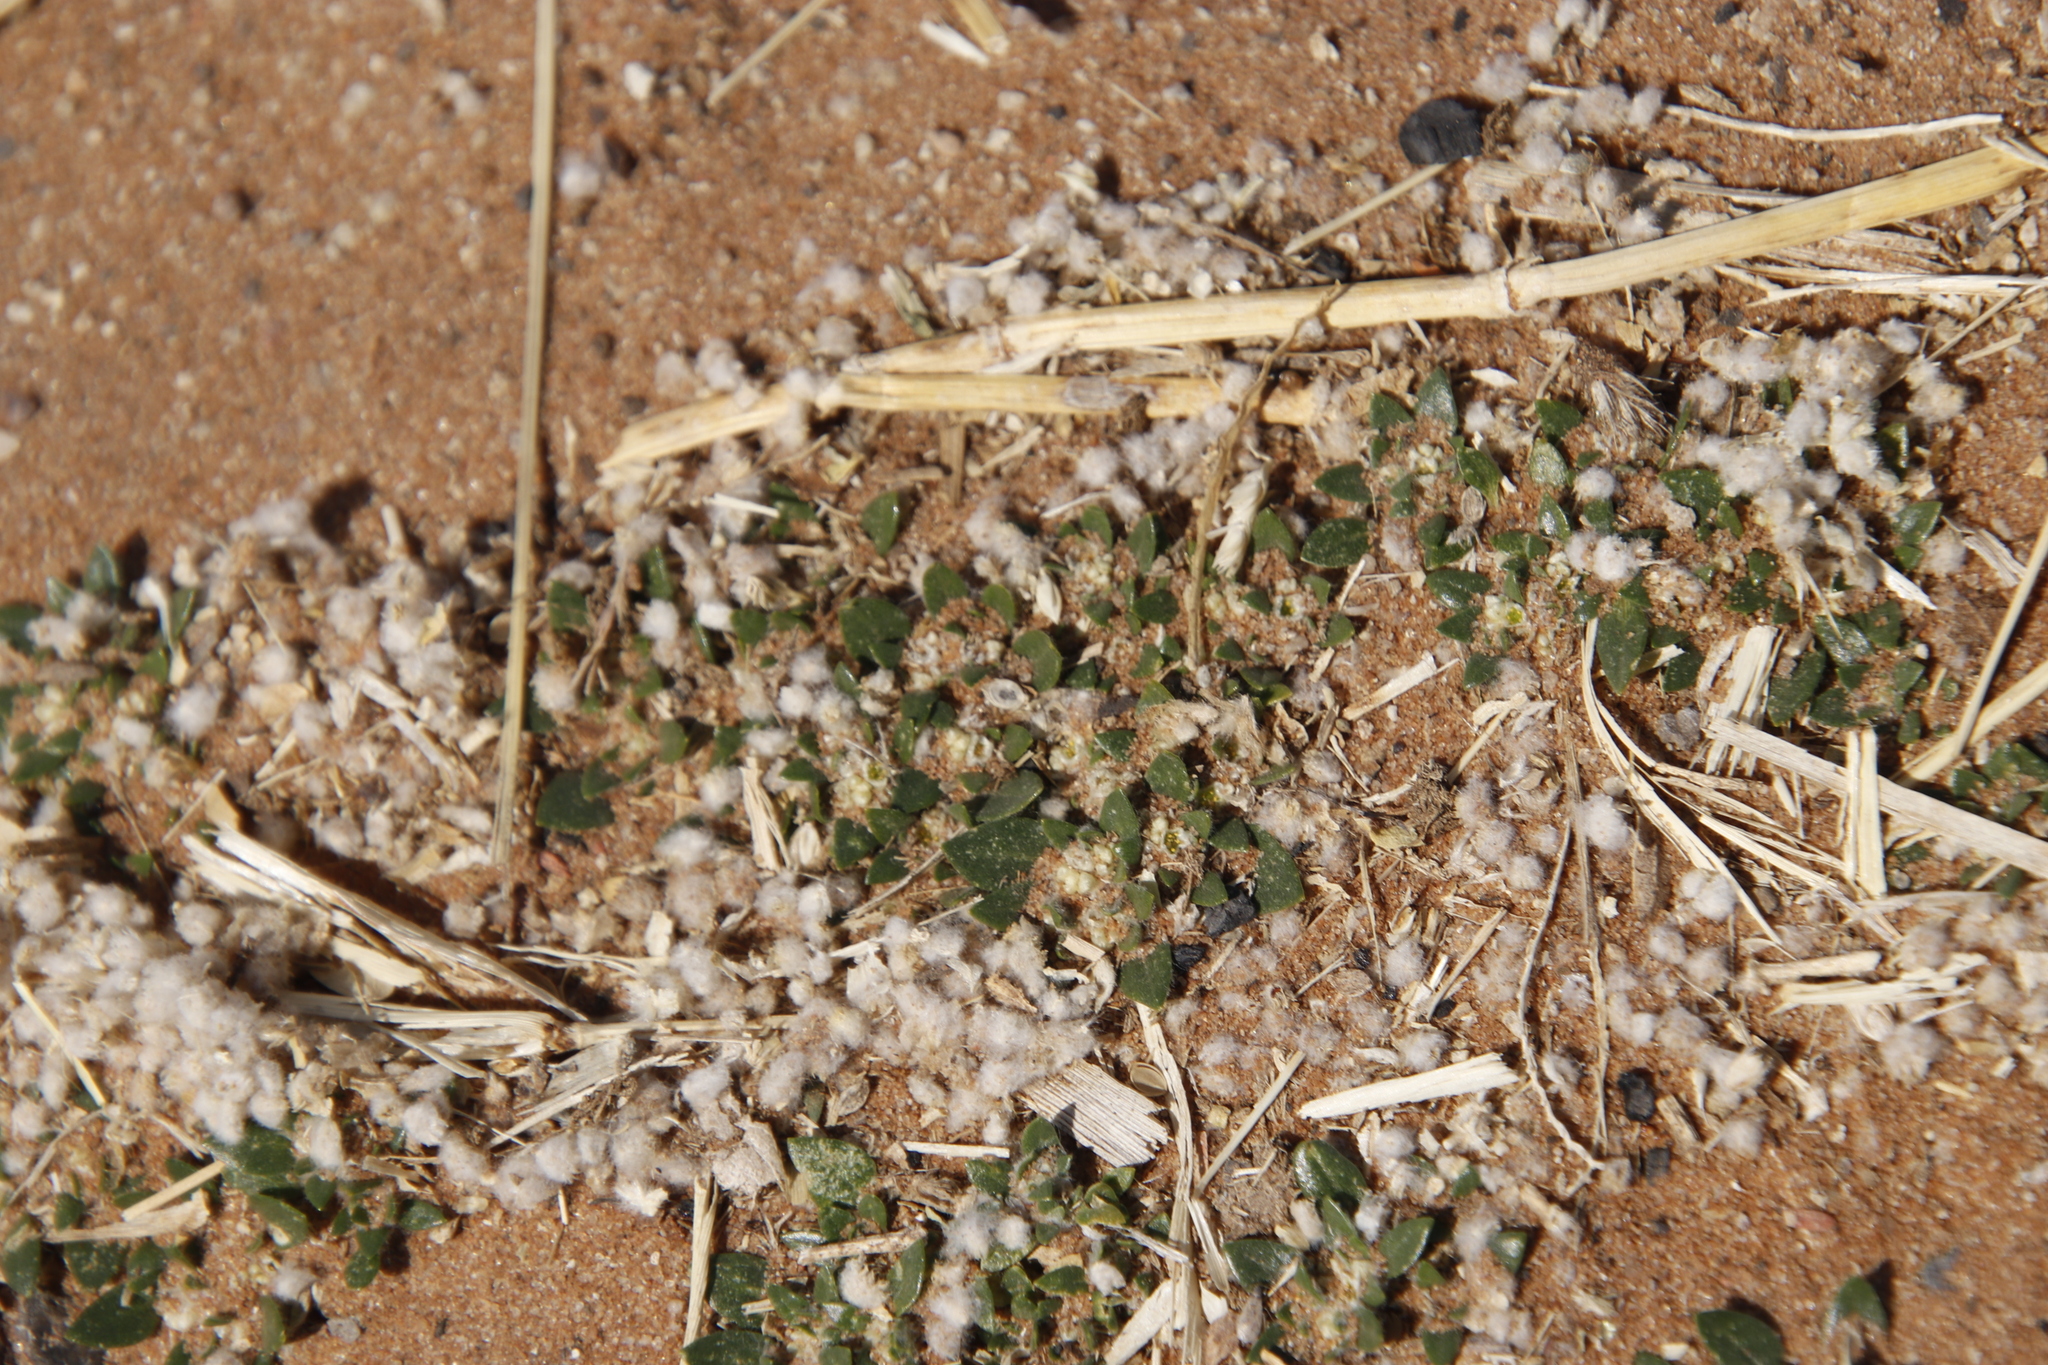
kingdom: Plantae
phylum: Tracheophyta
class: Magnoliopsida
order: Caryophyllales
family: Amaranthaceae
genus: Guilleminea
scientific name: Guilleminea densa
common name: Small matweed
